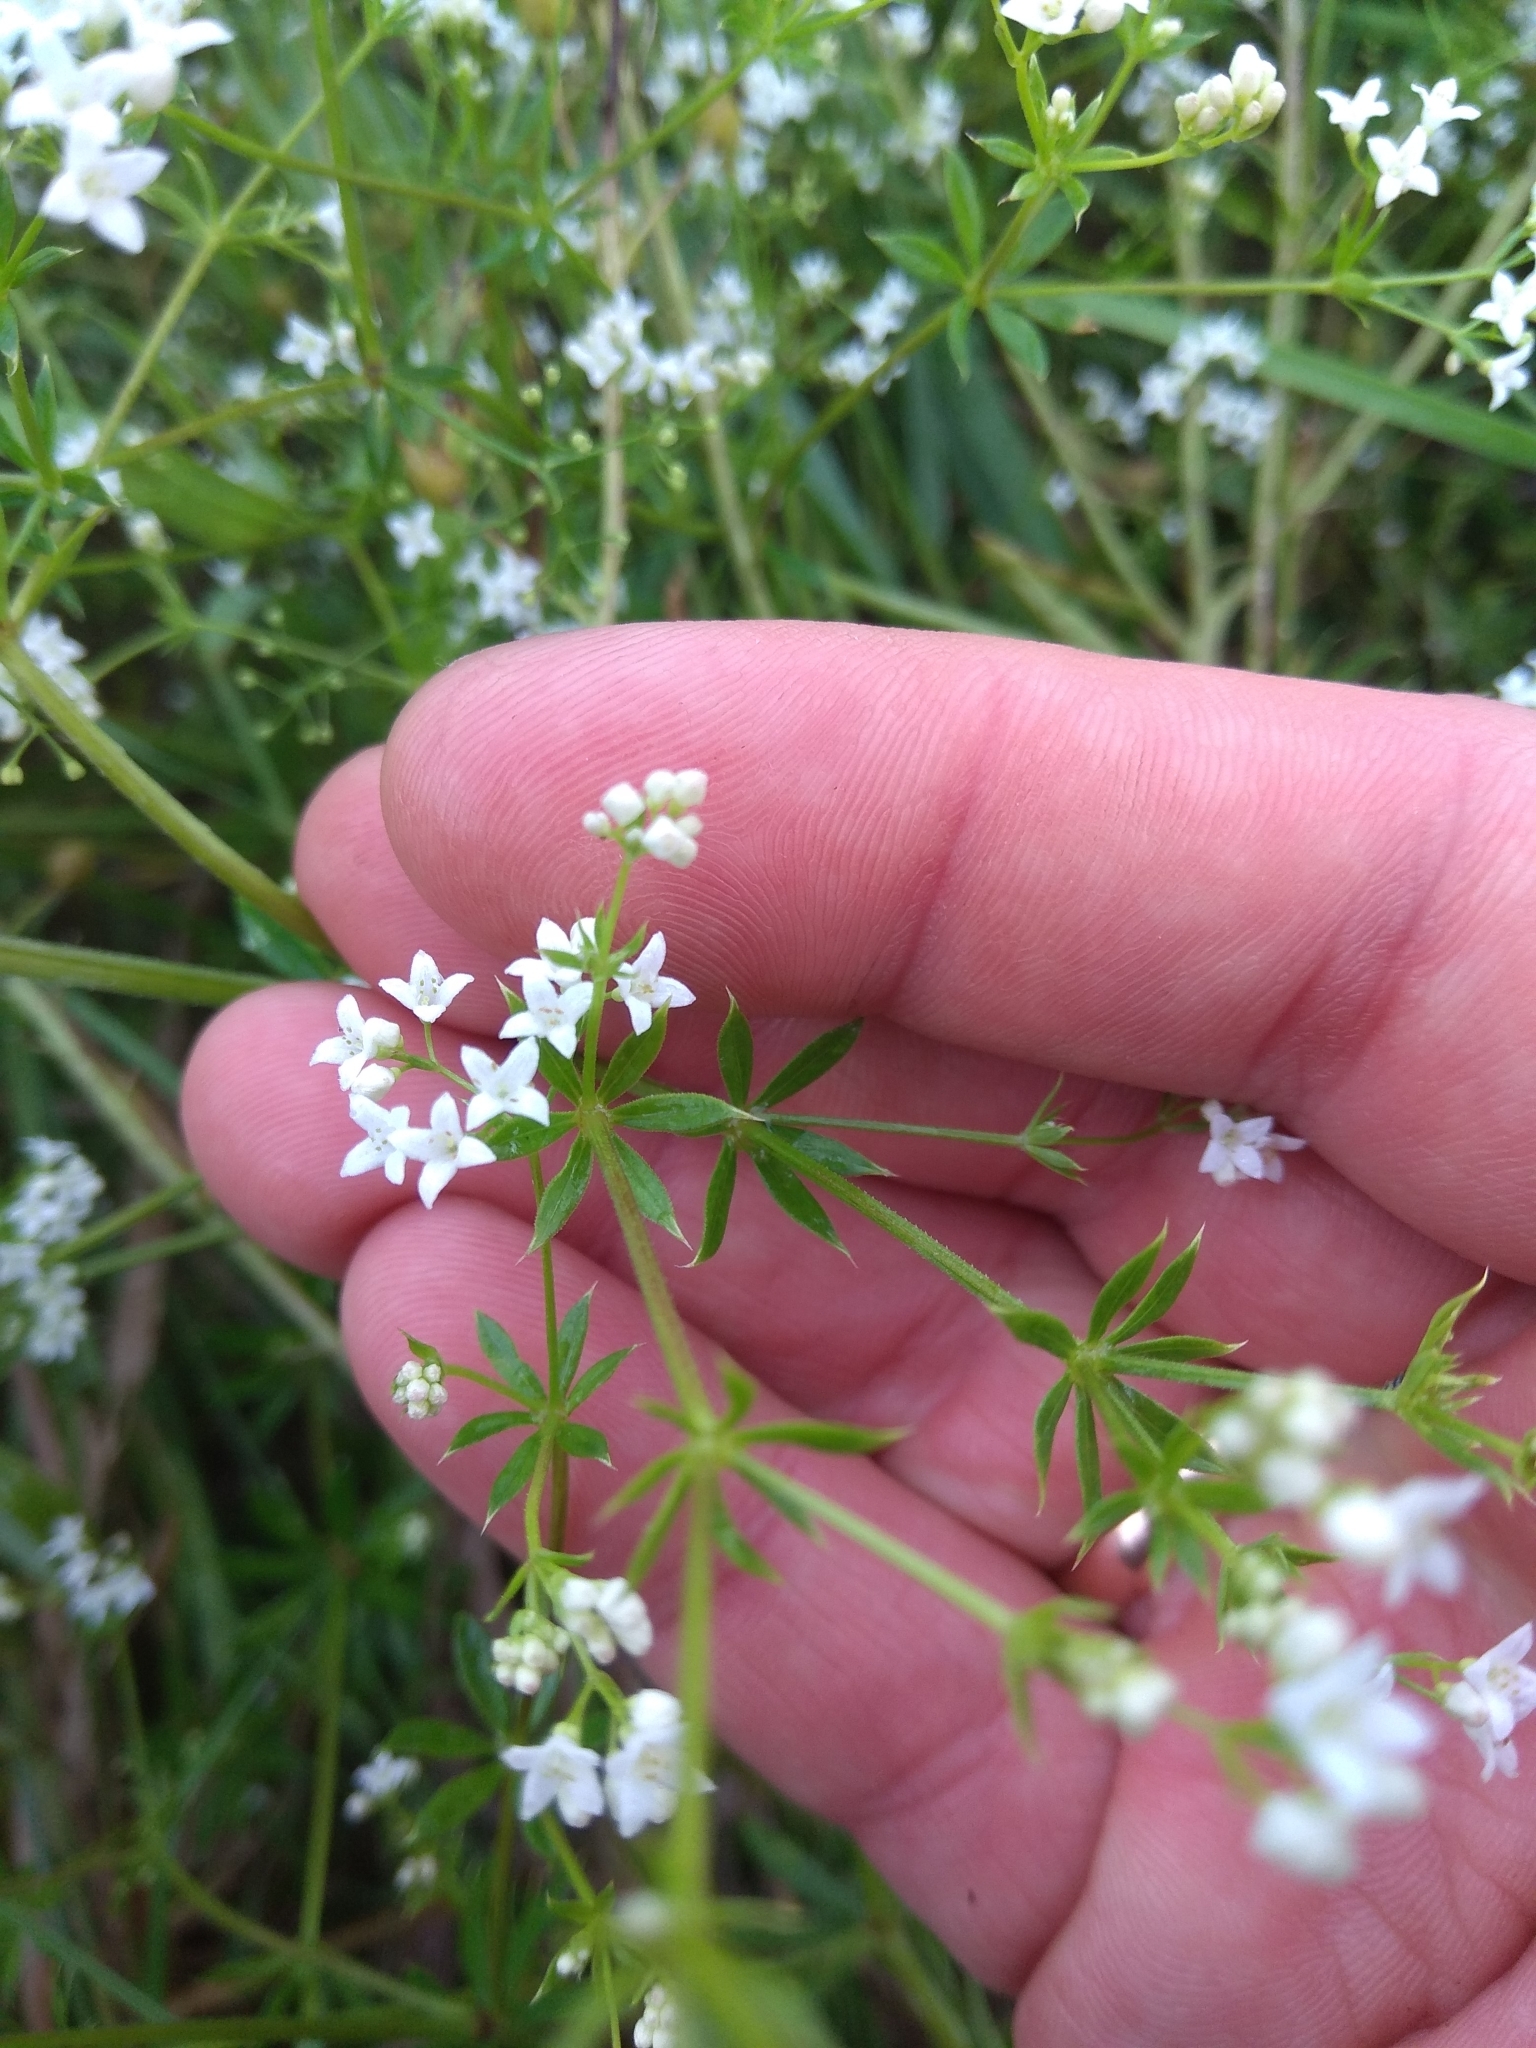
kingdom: Plantae
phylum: Tracheophyta
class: Magnoliopsida
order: Gentianales
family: Rubiaceae
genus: Galium
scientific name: Galium rivale
